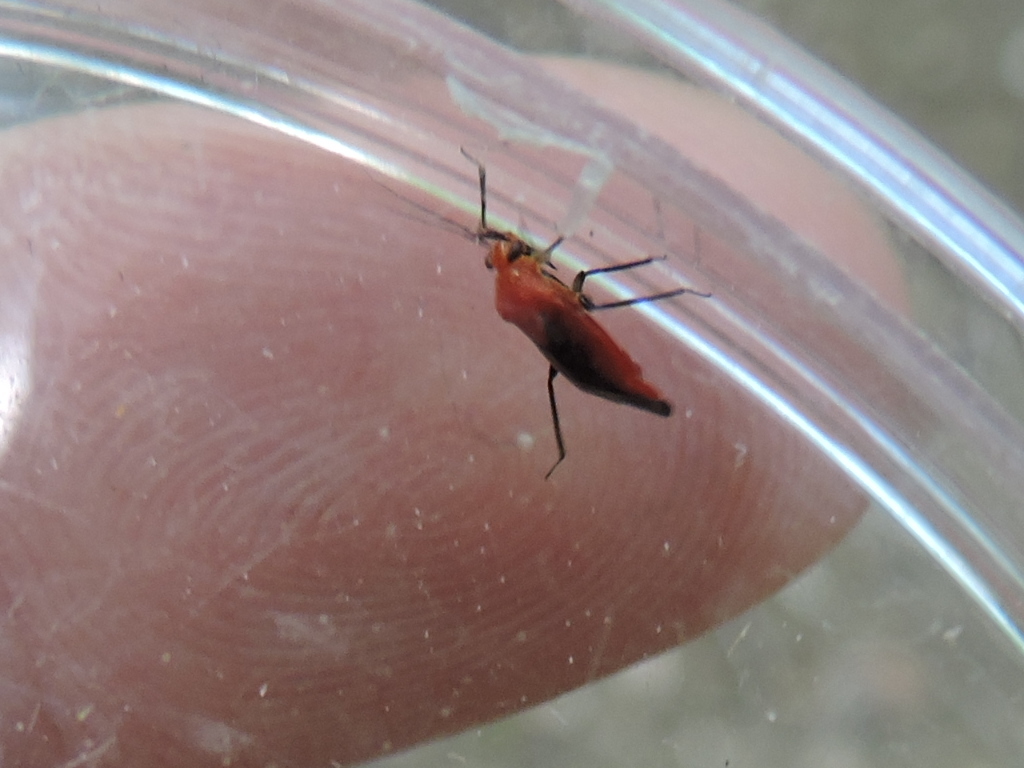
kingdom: Animalia
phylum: Arthropoda
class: Insecta
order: Hemiptera
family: Miridae
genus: Tropidosteptes
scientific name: Tropidosteptes cardinalis
